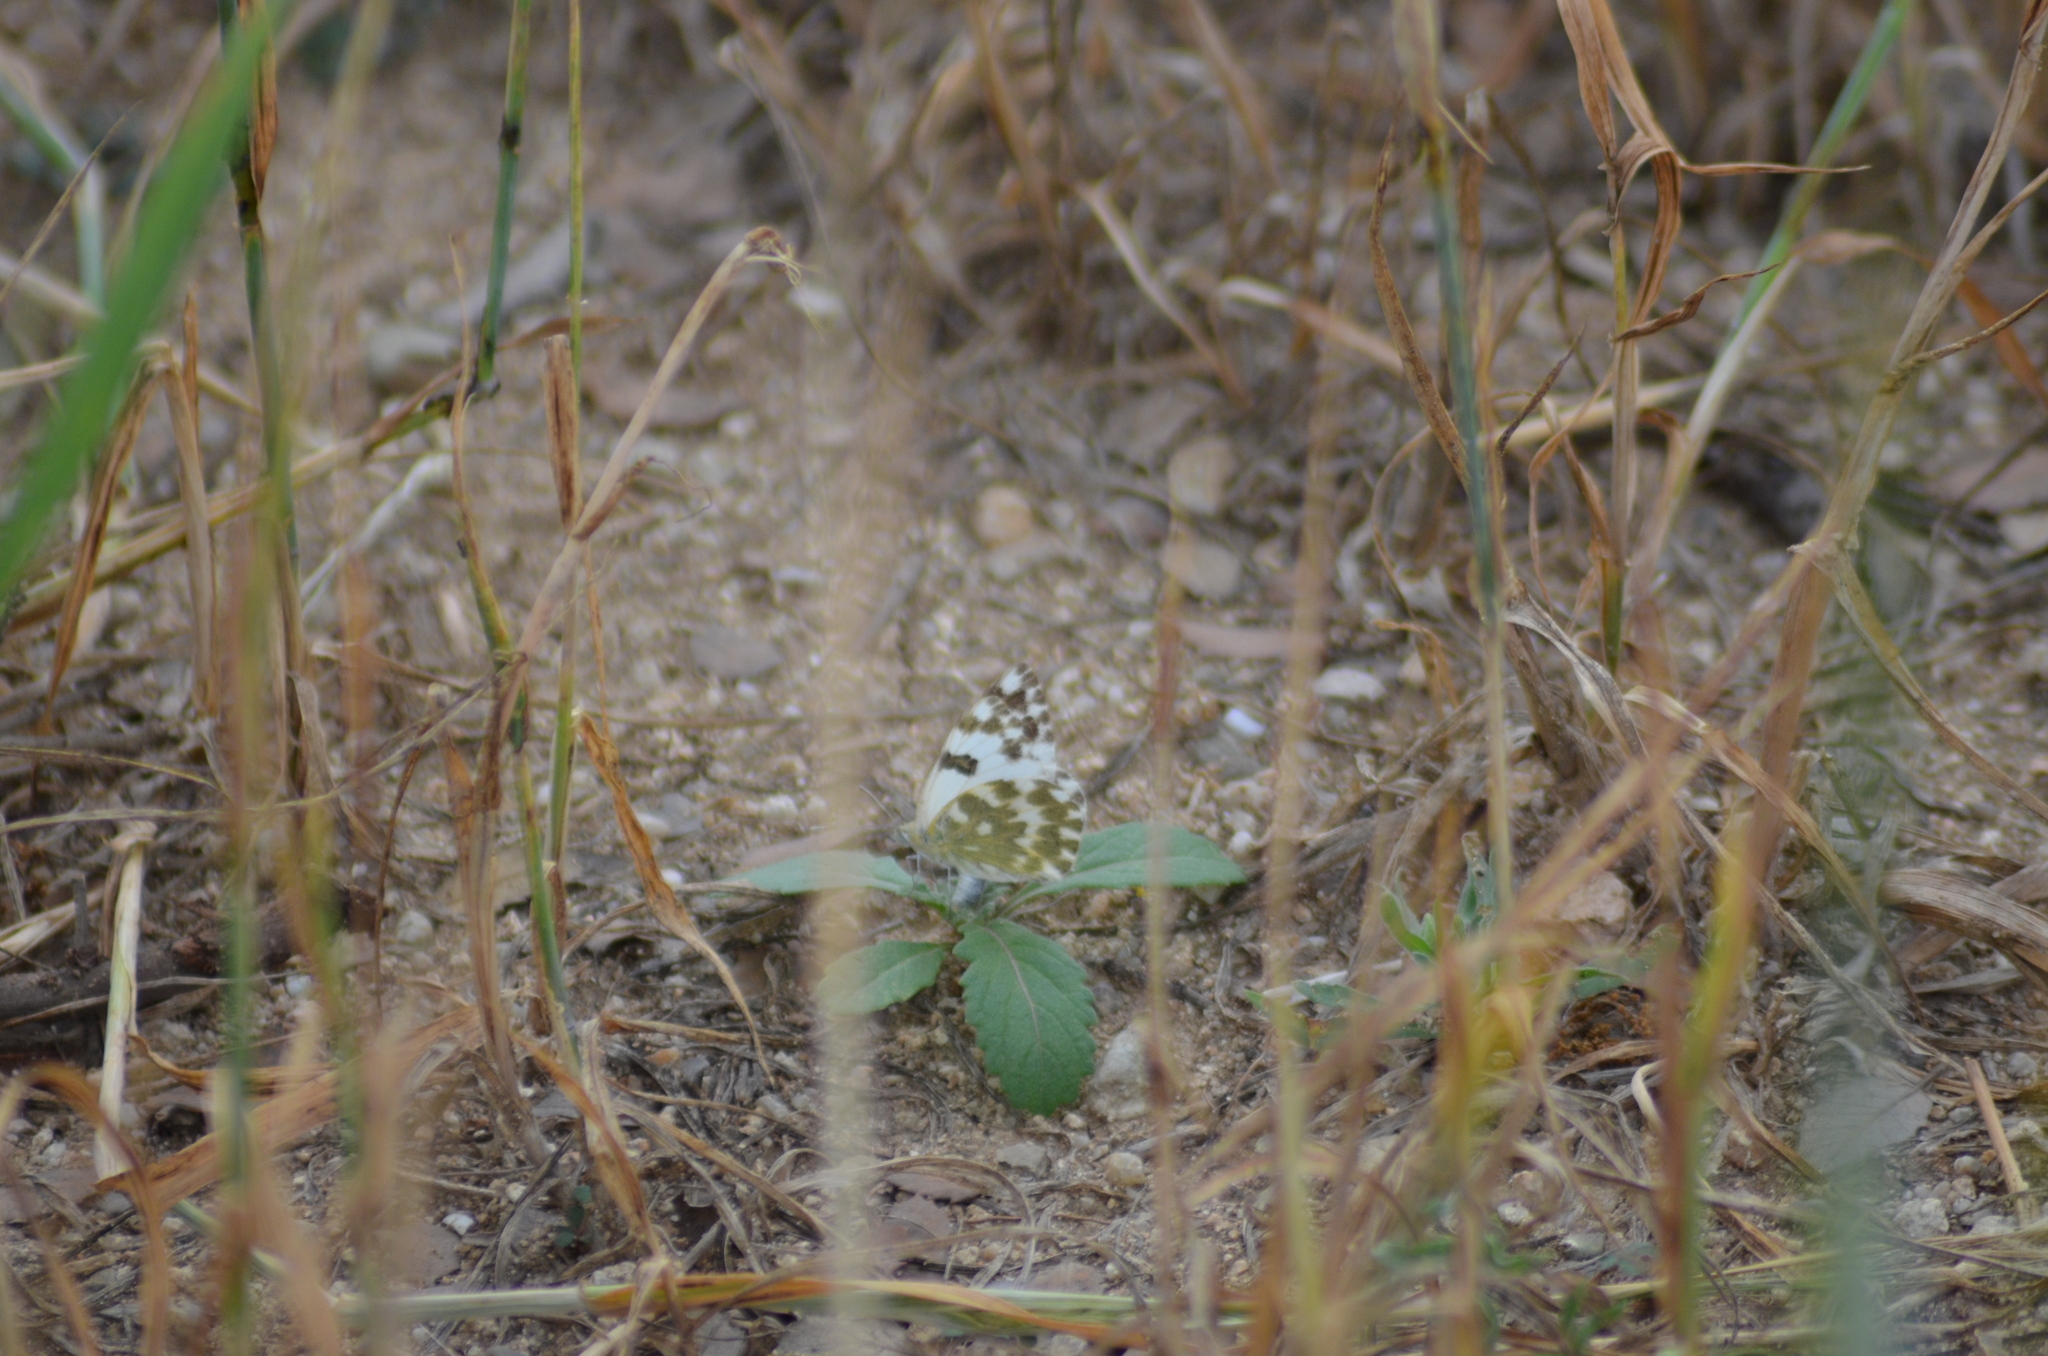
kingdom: Animalia
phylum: Arthropoda
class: Insecta
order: Lepidoptera
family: Pieridae
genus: Pontia
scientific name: Pontia daplidice
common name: Bath white
